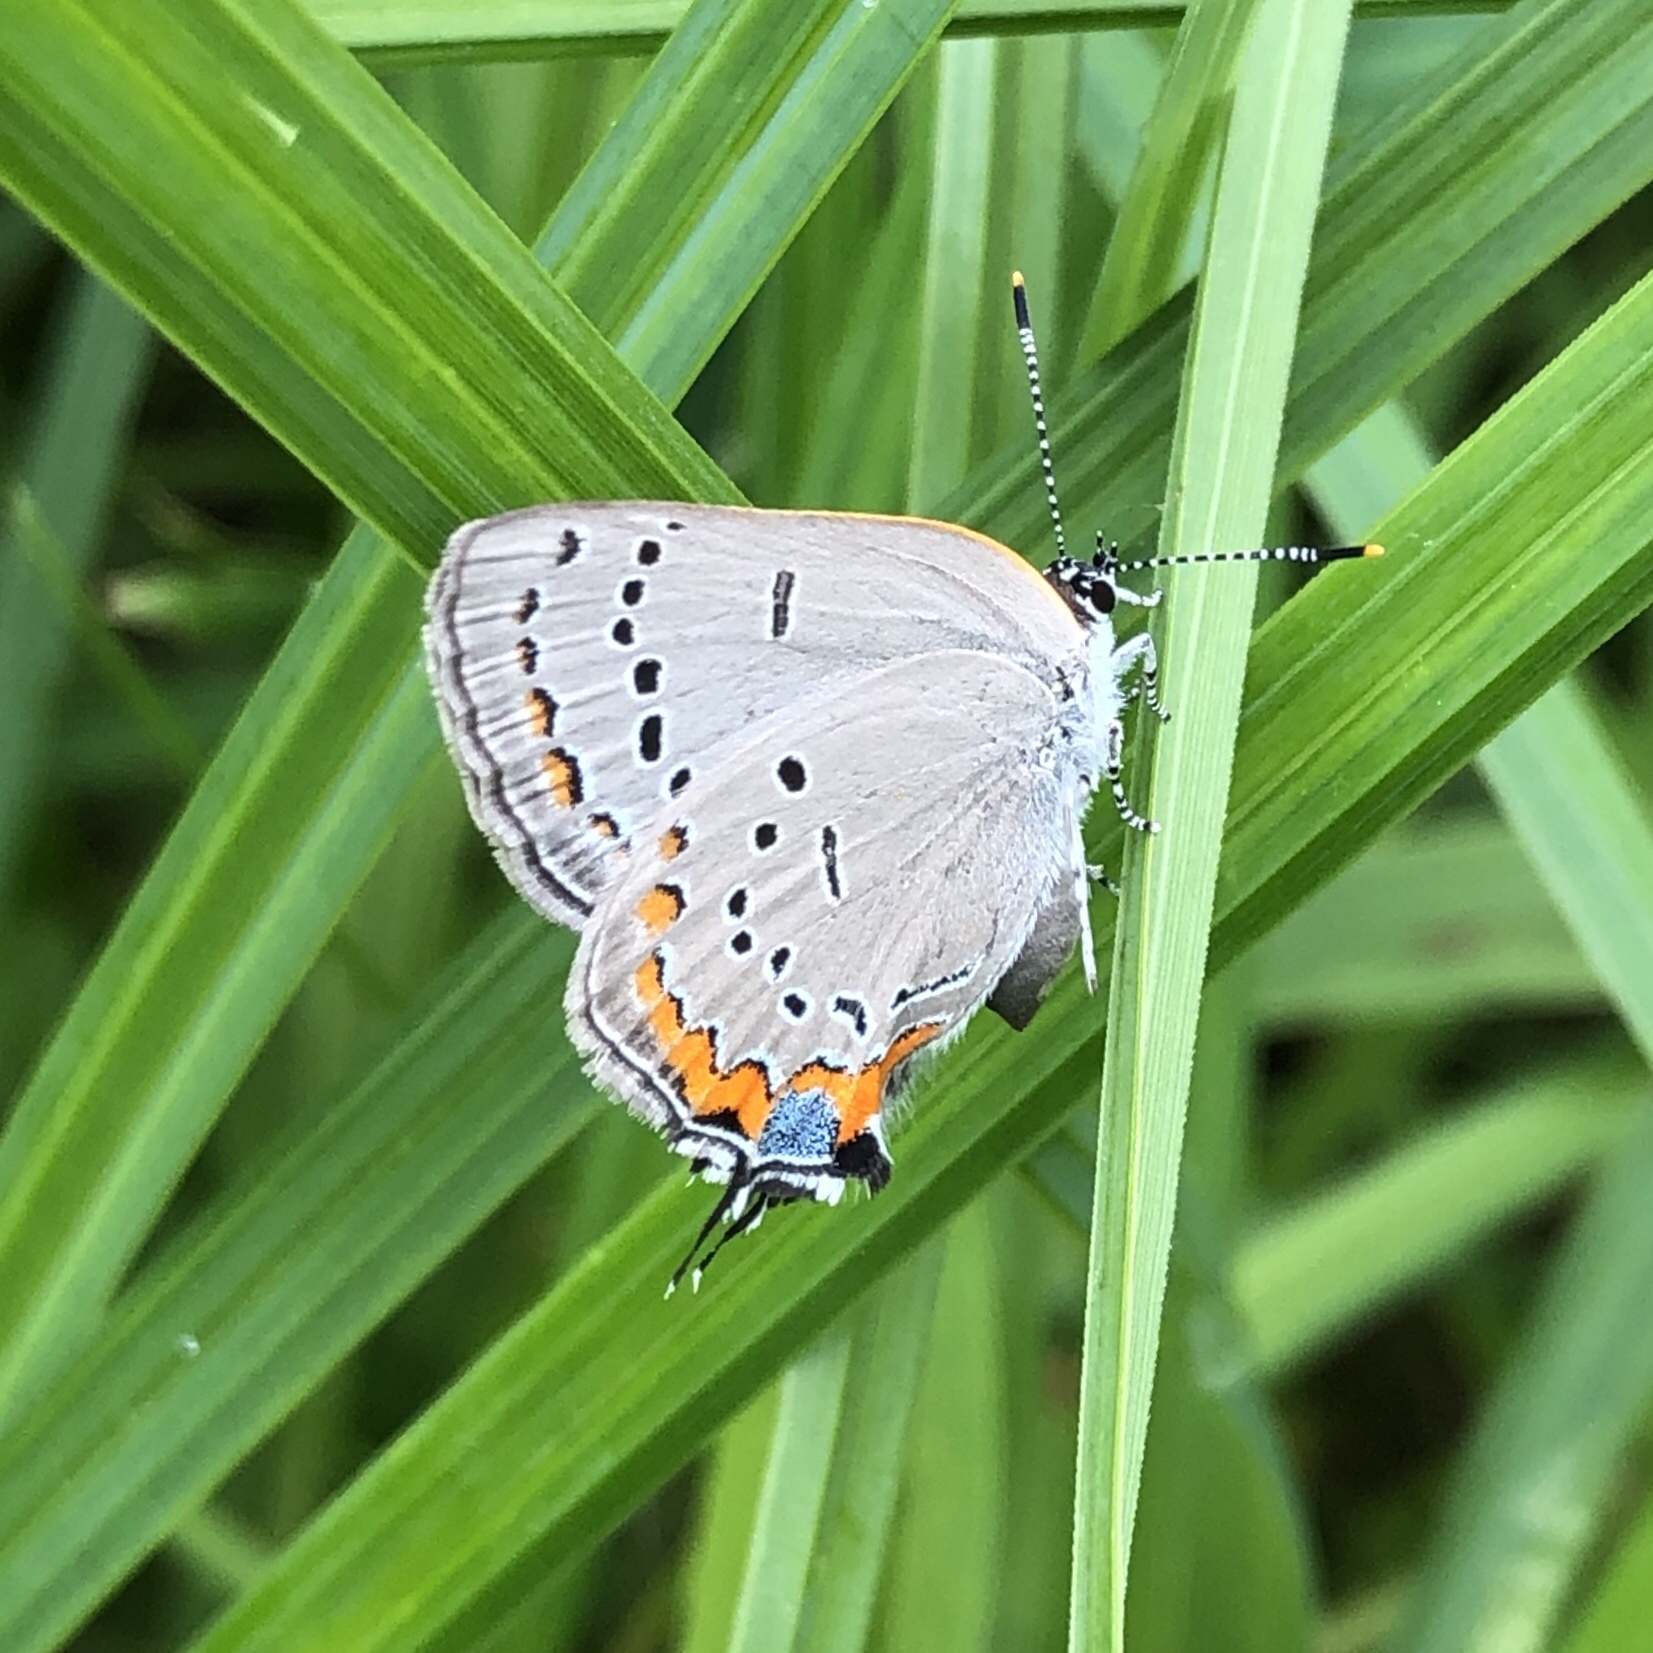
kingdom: Animalia
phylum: Arthropoda
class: Insecta
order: Lepidoptera
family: Lycaenidae
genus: Strymon
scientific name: Strymon acadica
